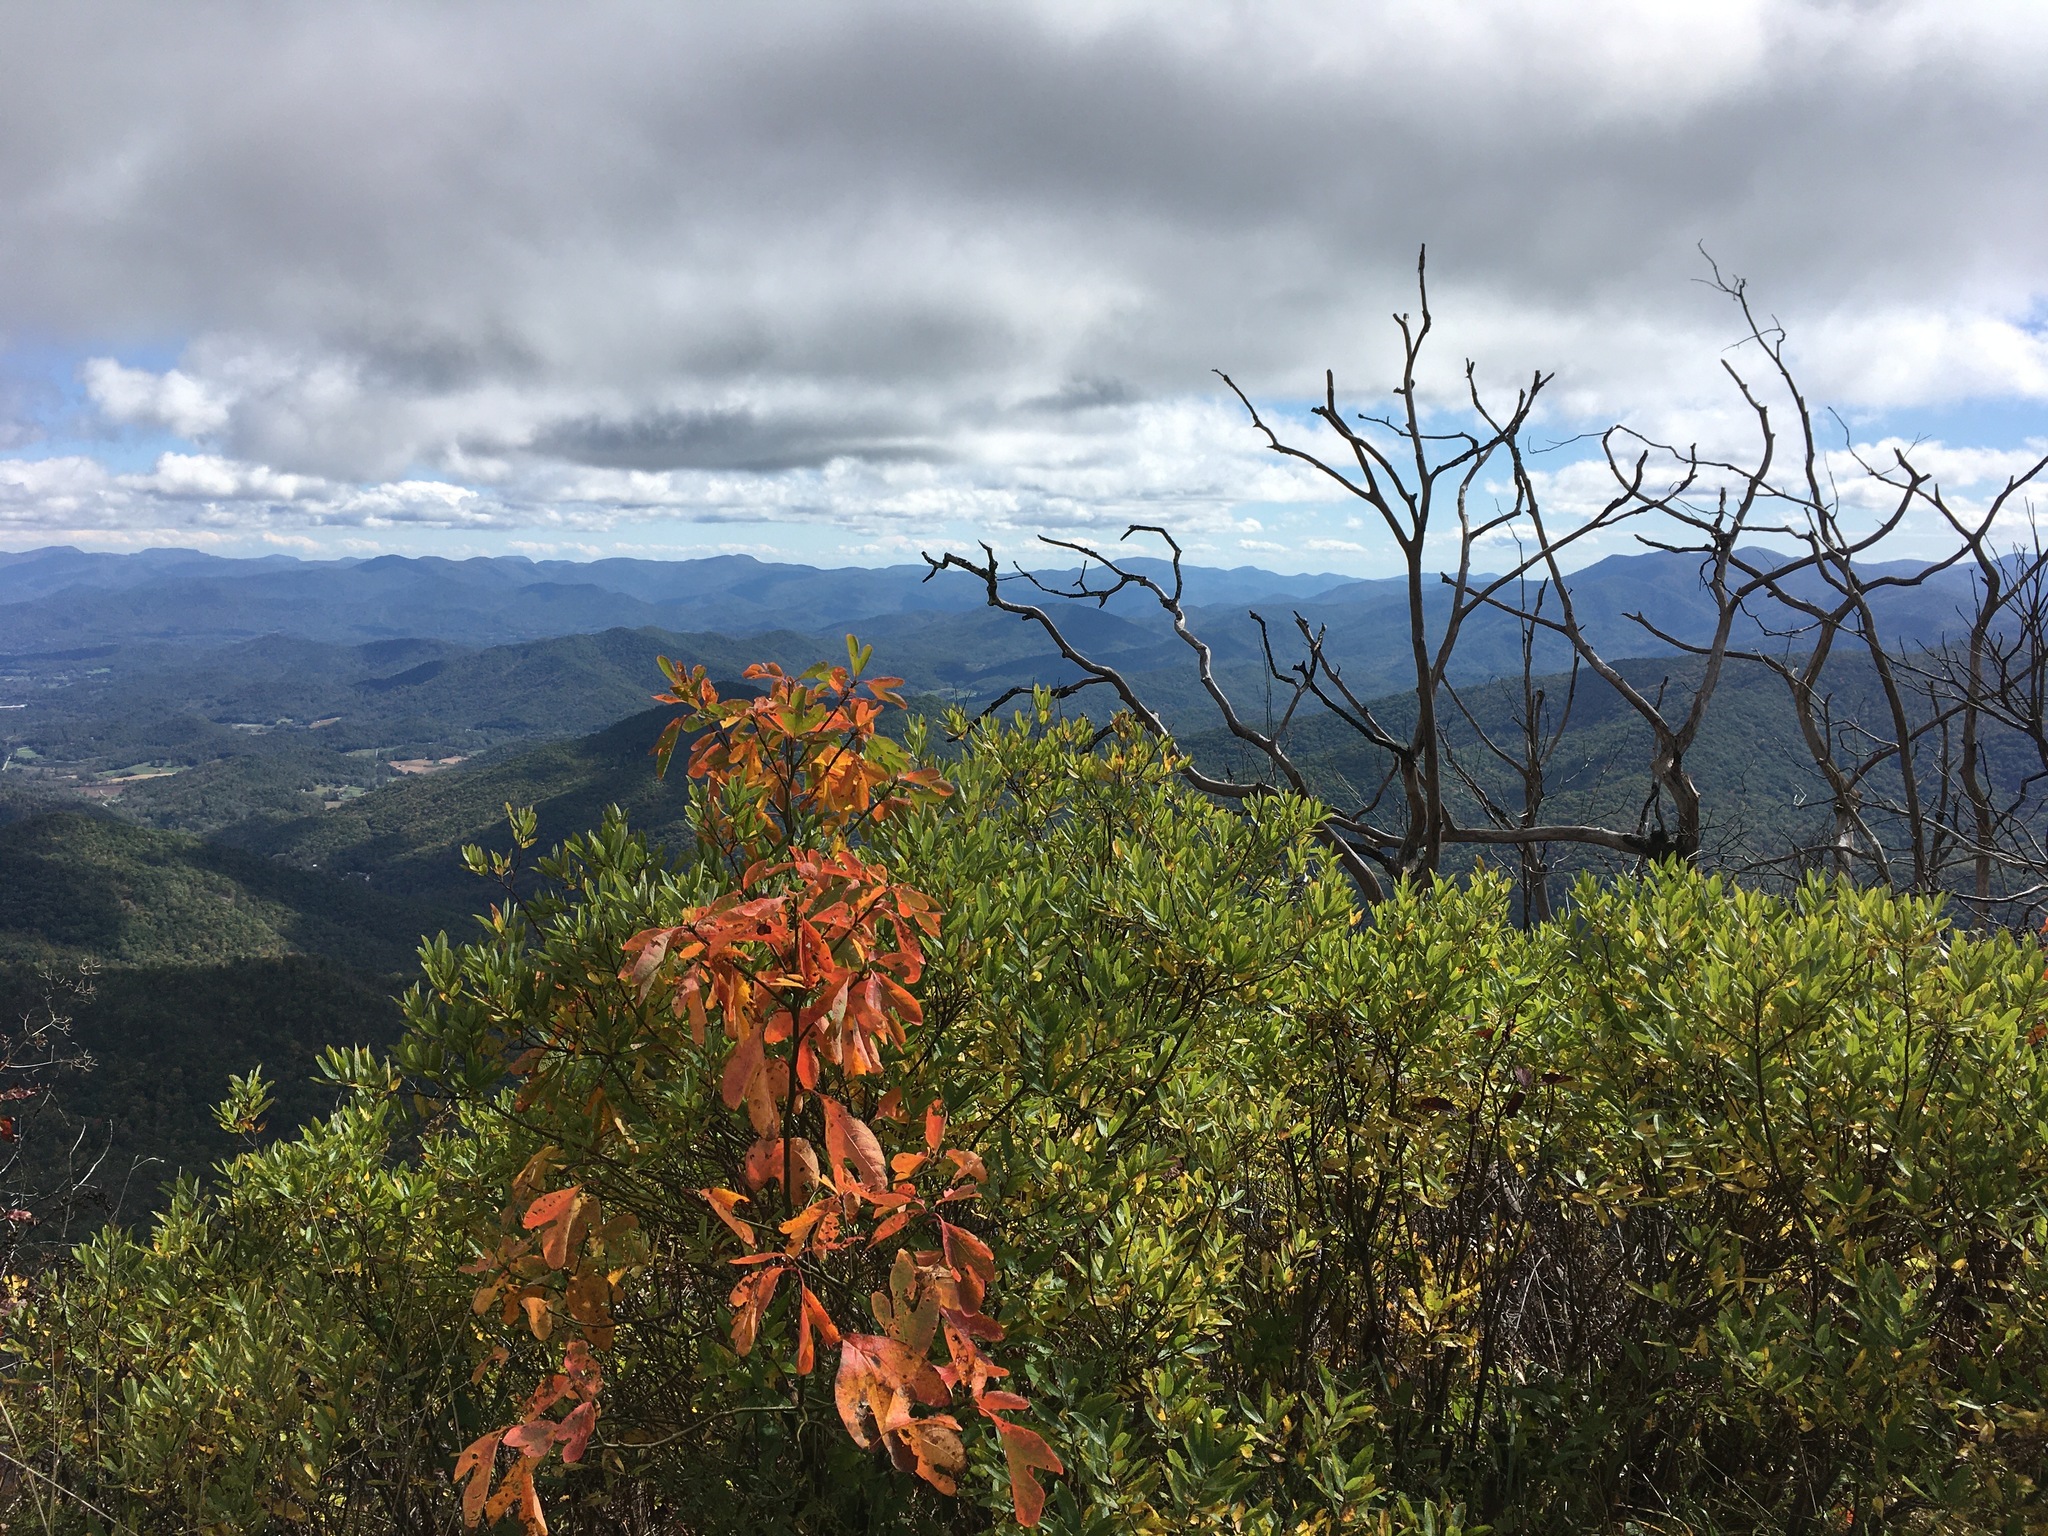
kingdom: Plantae
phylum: Tracheophyta
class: Magnoliopsida
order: Laurales
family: Lauraceae
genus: Sassafras
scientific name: Sassafras albidum
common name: Sassafras
